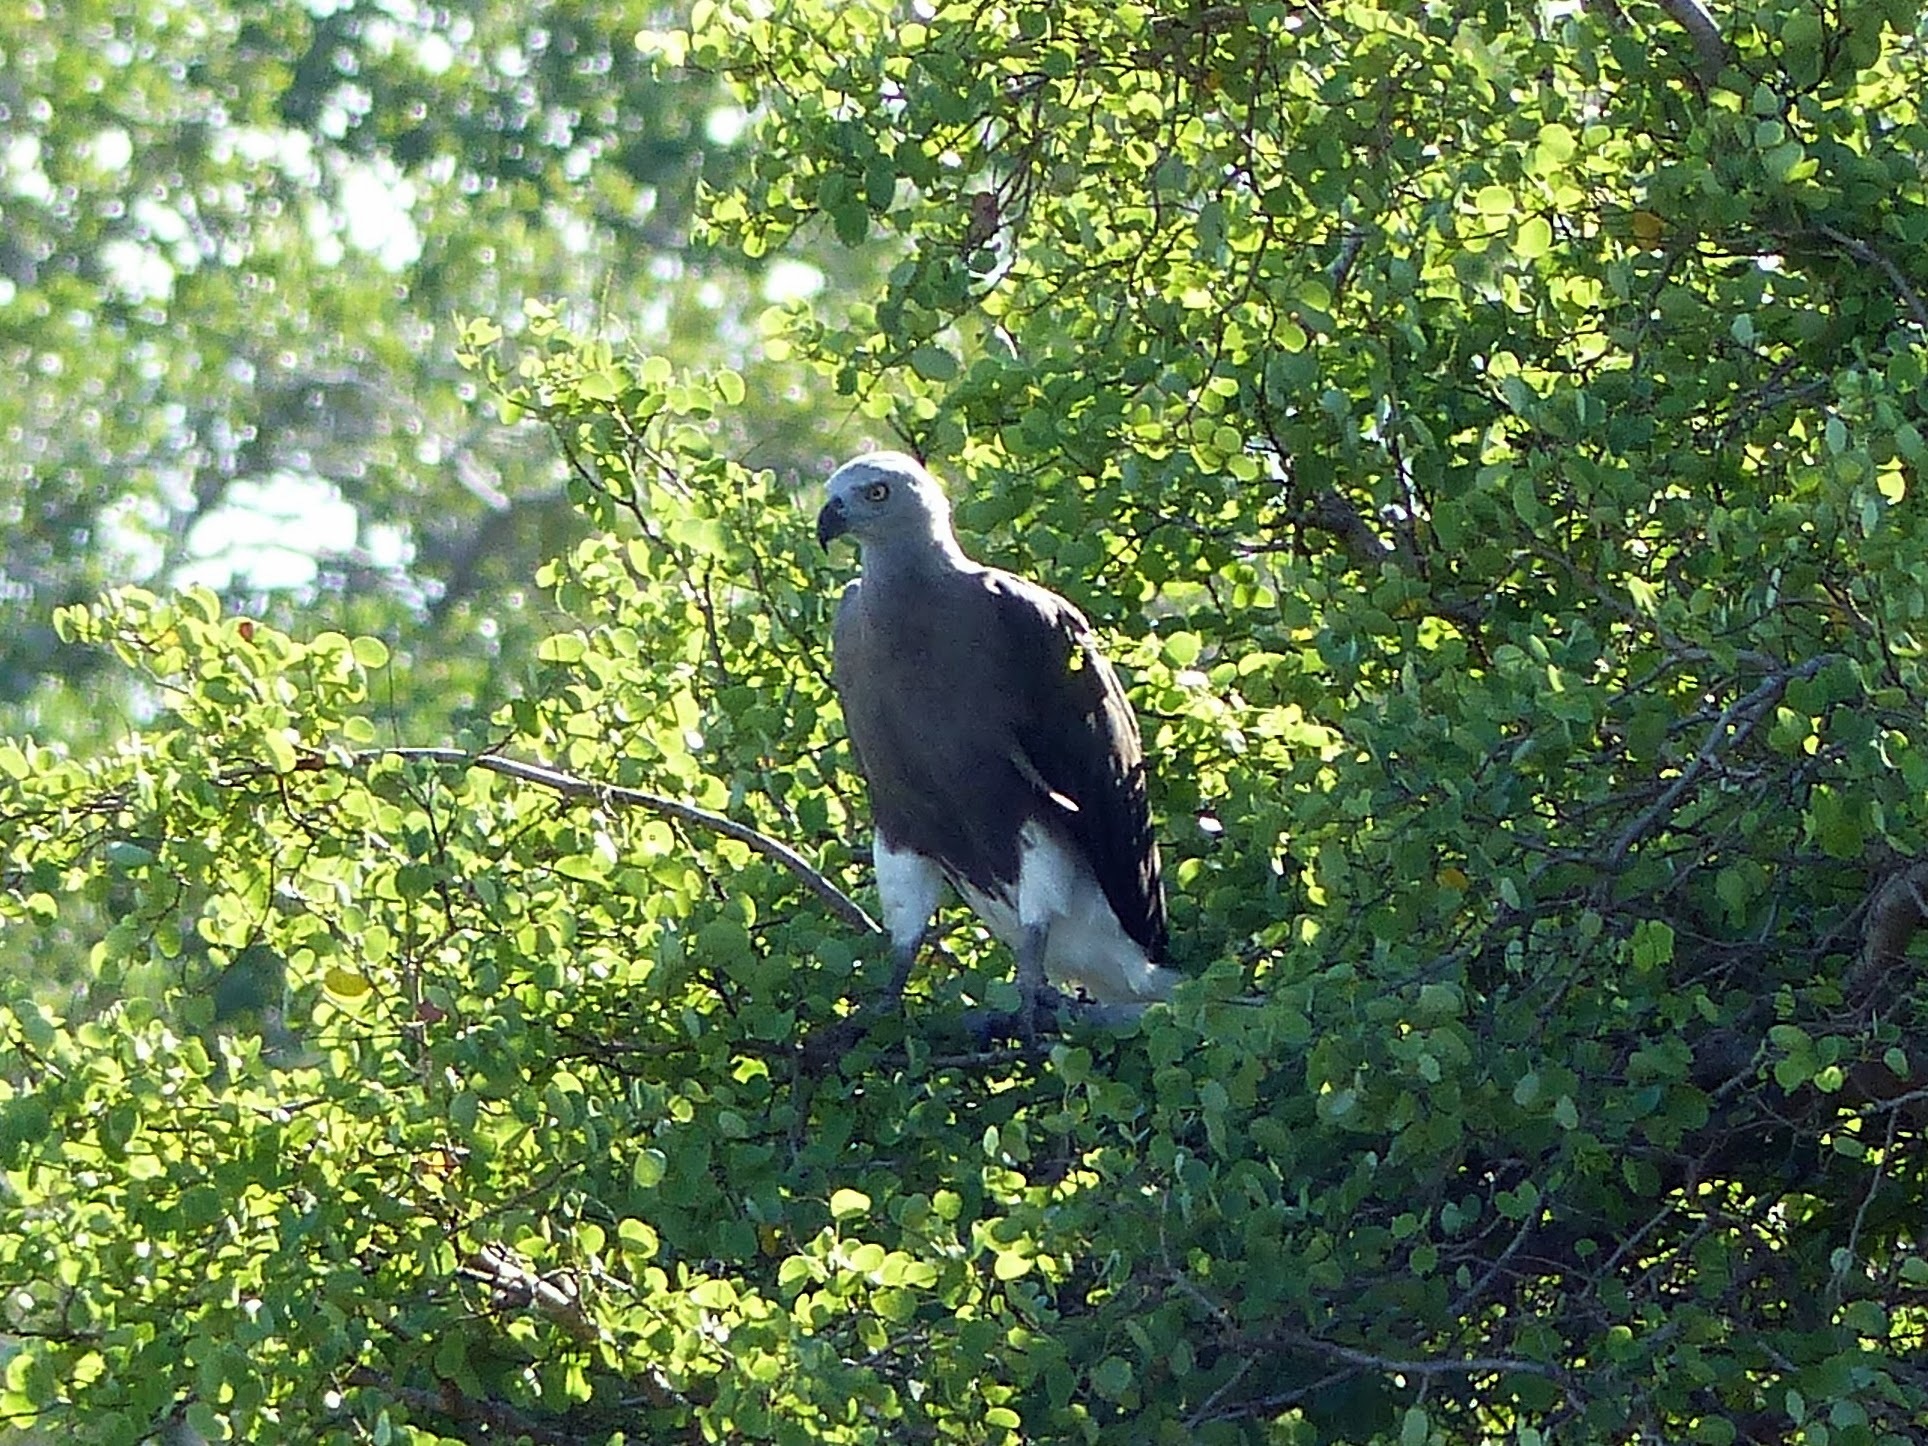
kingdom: Animalia
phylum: Chordata
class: Aves
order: Accipitriformes
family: Accipitridae
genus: Icthyophaga
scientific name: Icthyophaga ichthyaetus
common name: Grey-headed fish eagle
